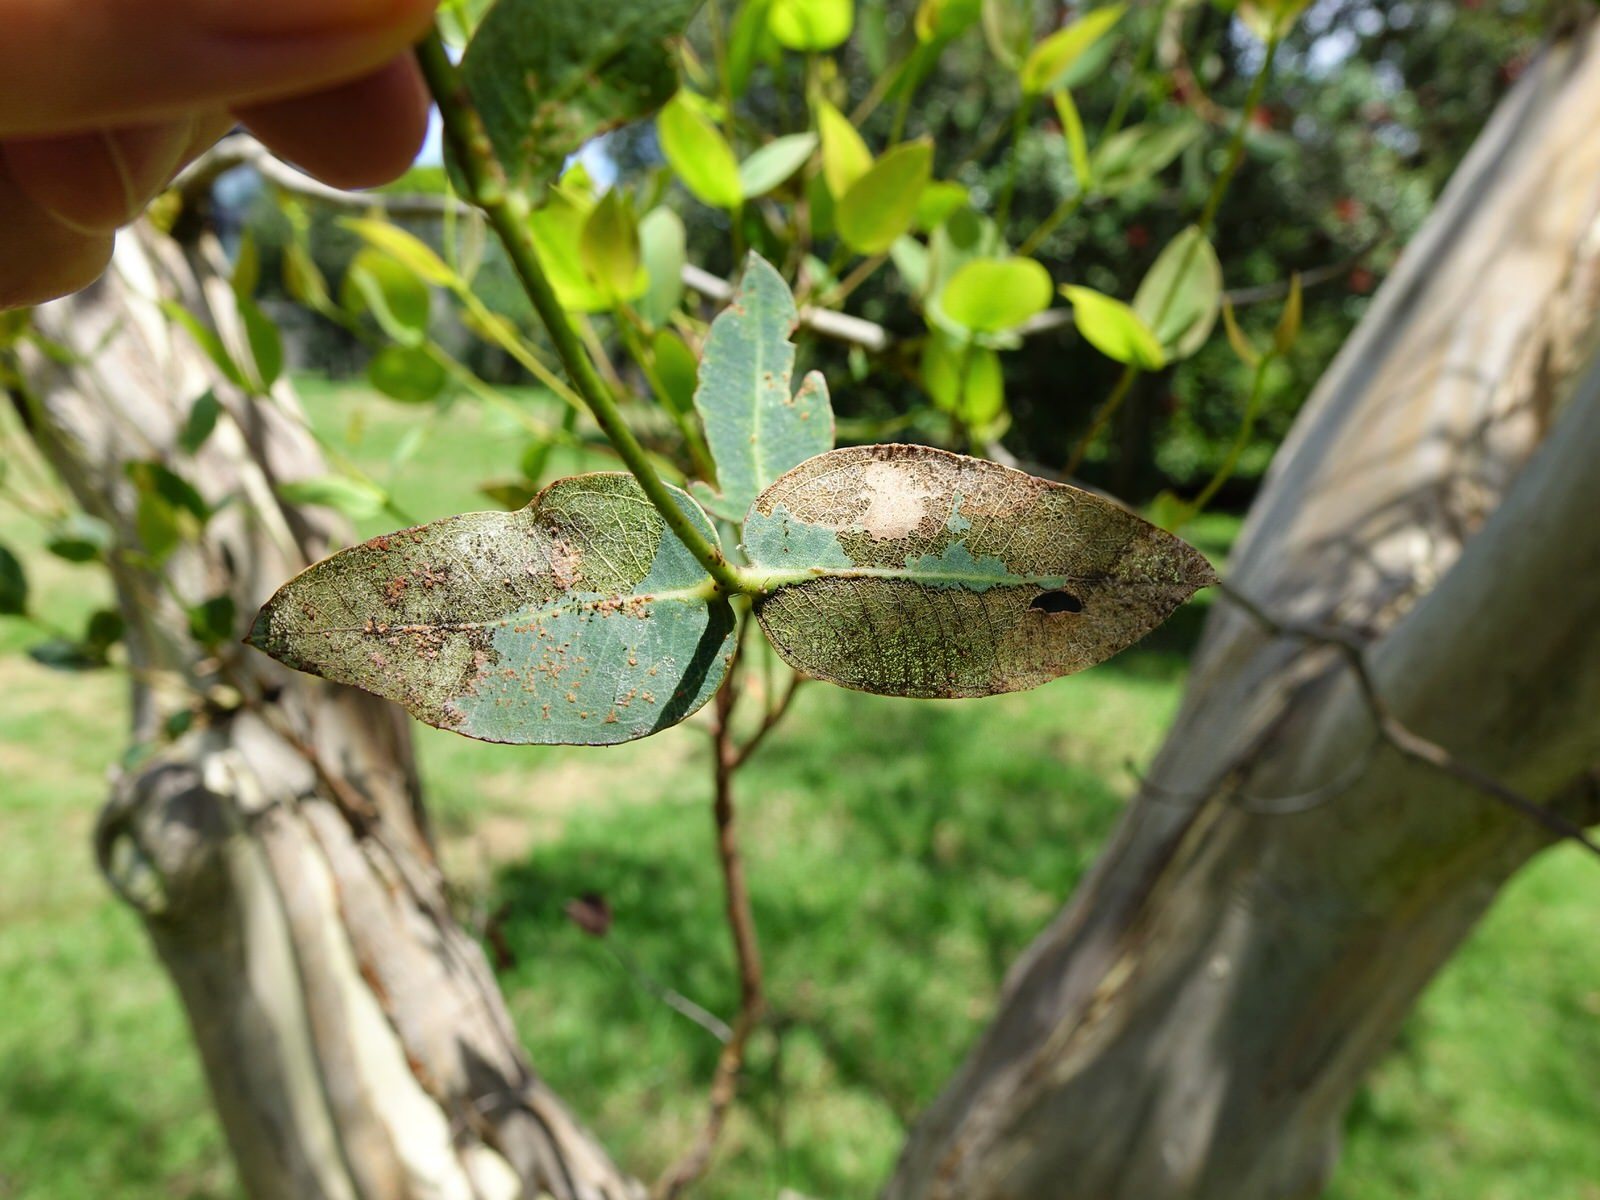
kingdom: Animalia
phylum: Arthropoda
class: Insecta
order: Lepidoptera
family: Nolidae
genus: Uraba
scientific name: Uraba lugens
